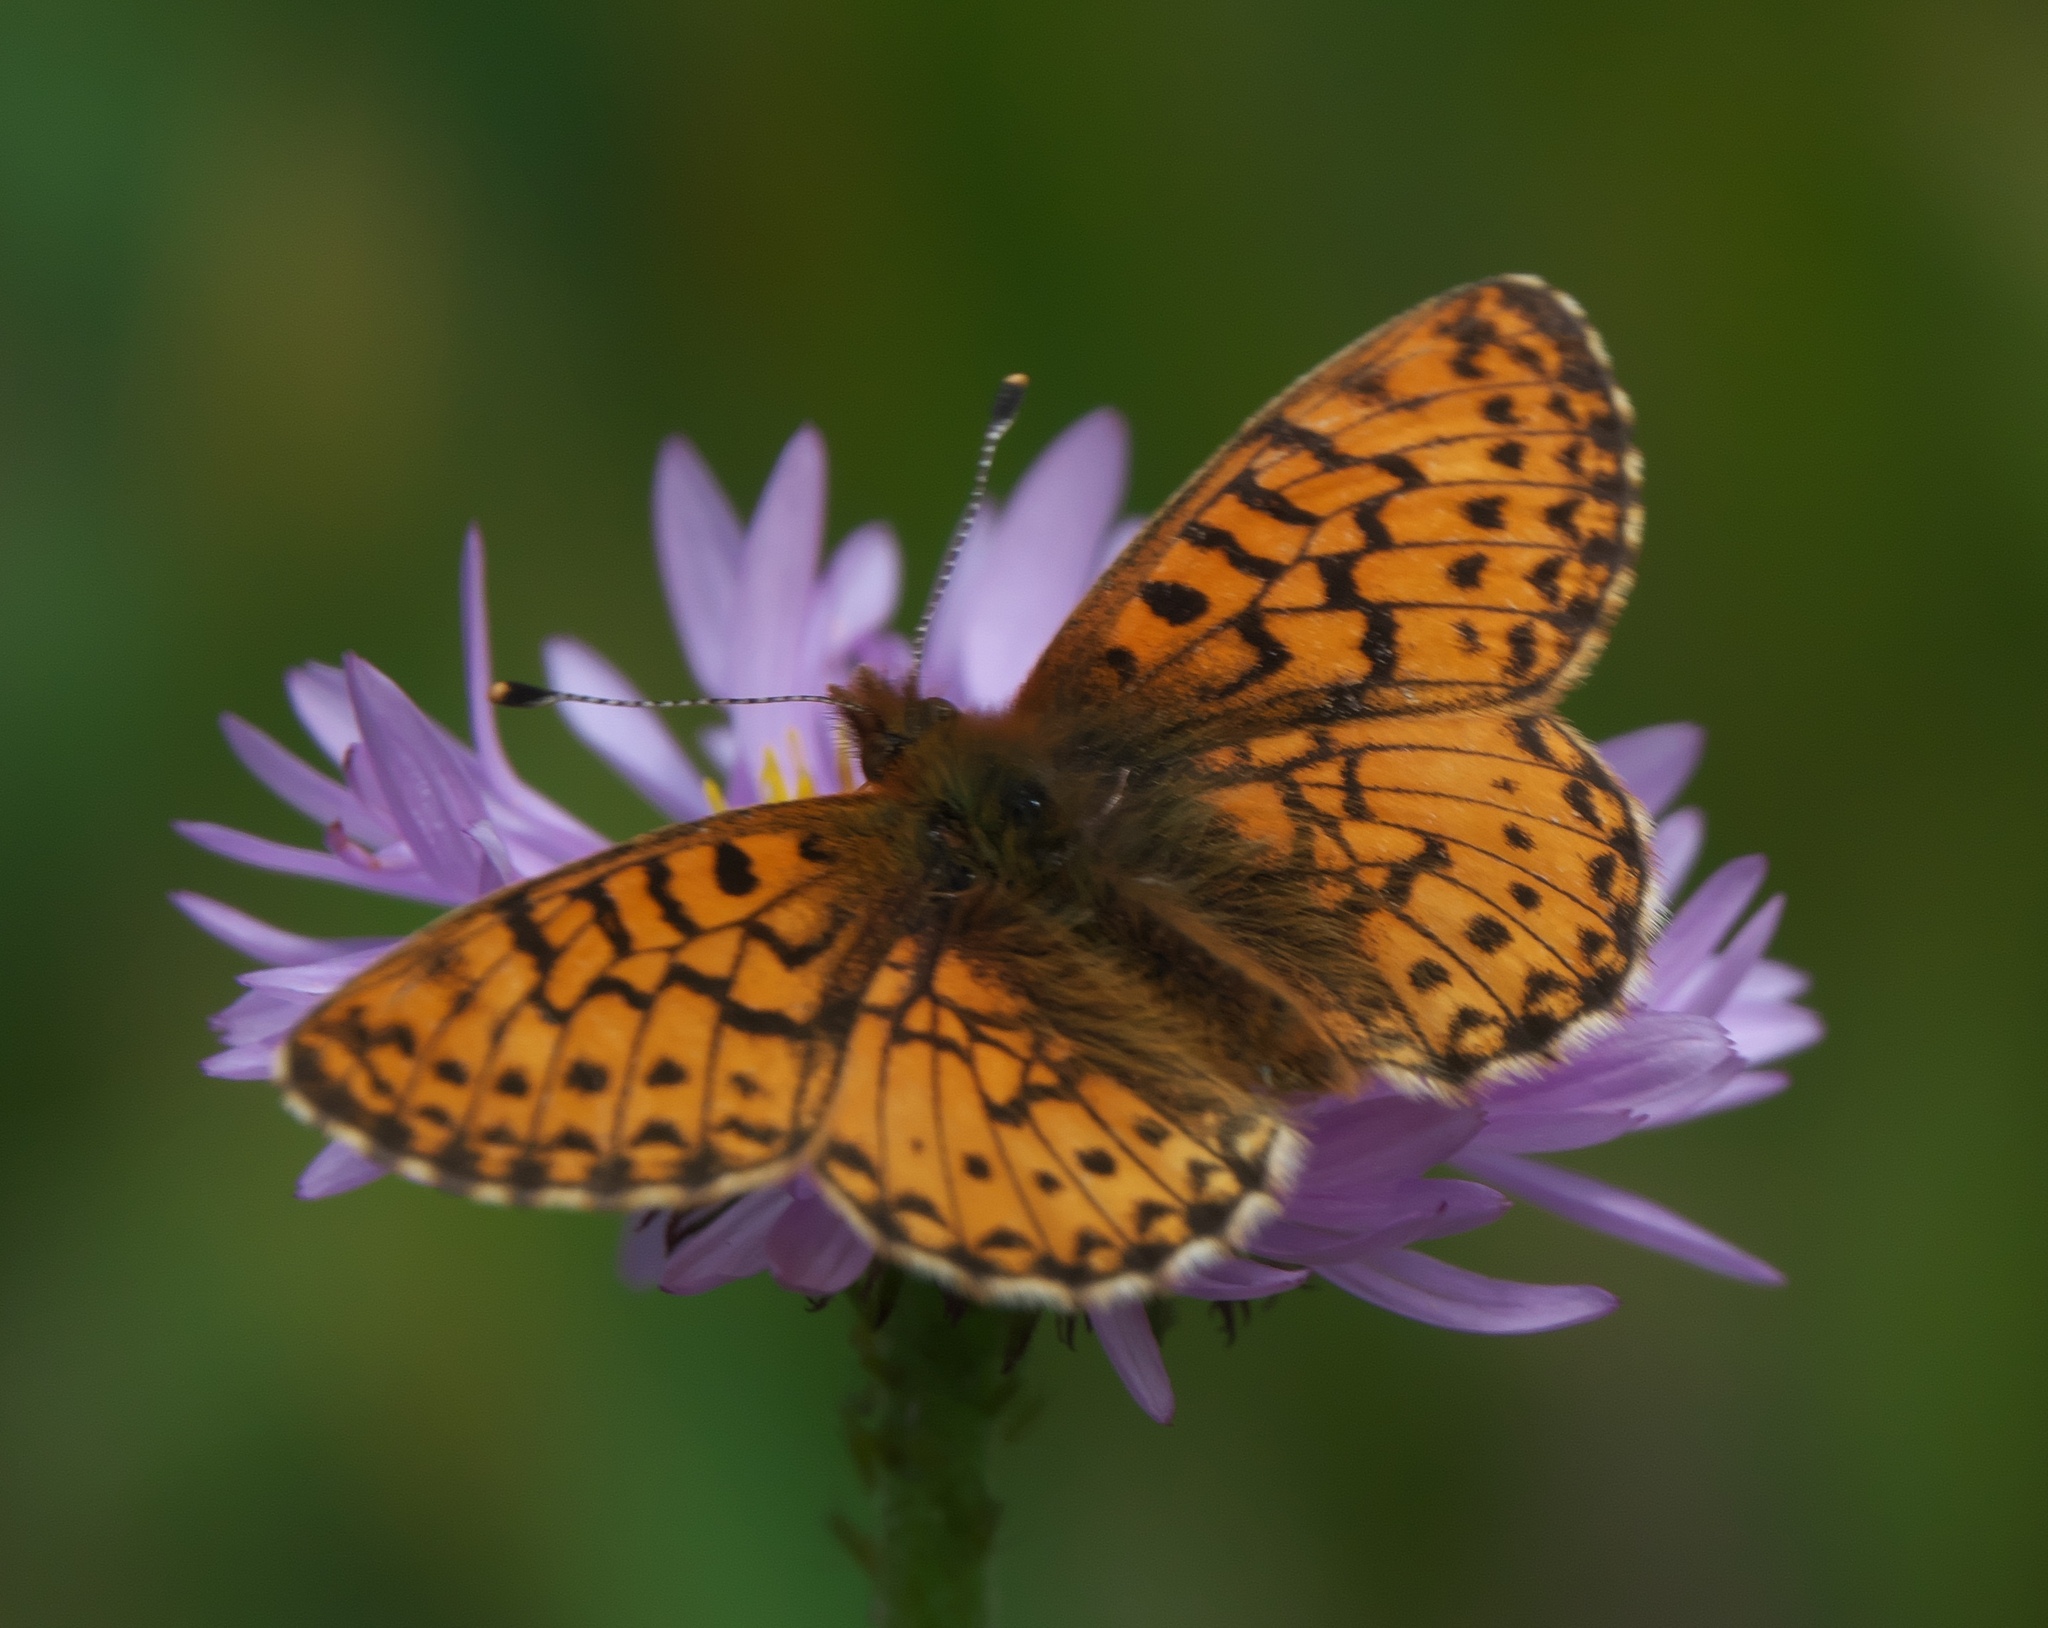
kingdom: Animalia
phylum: Arthropoda
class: Insecta
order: Lepidoptera
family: Nymphalidae
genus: Boloria
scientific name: Boloria chariclea
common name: Arctic fritillary
